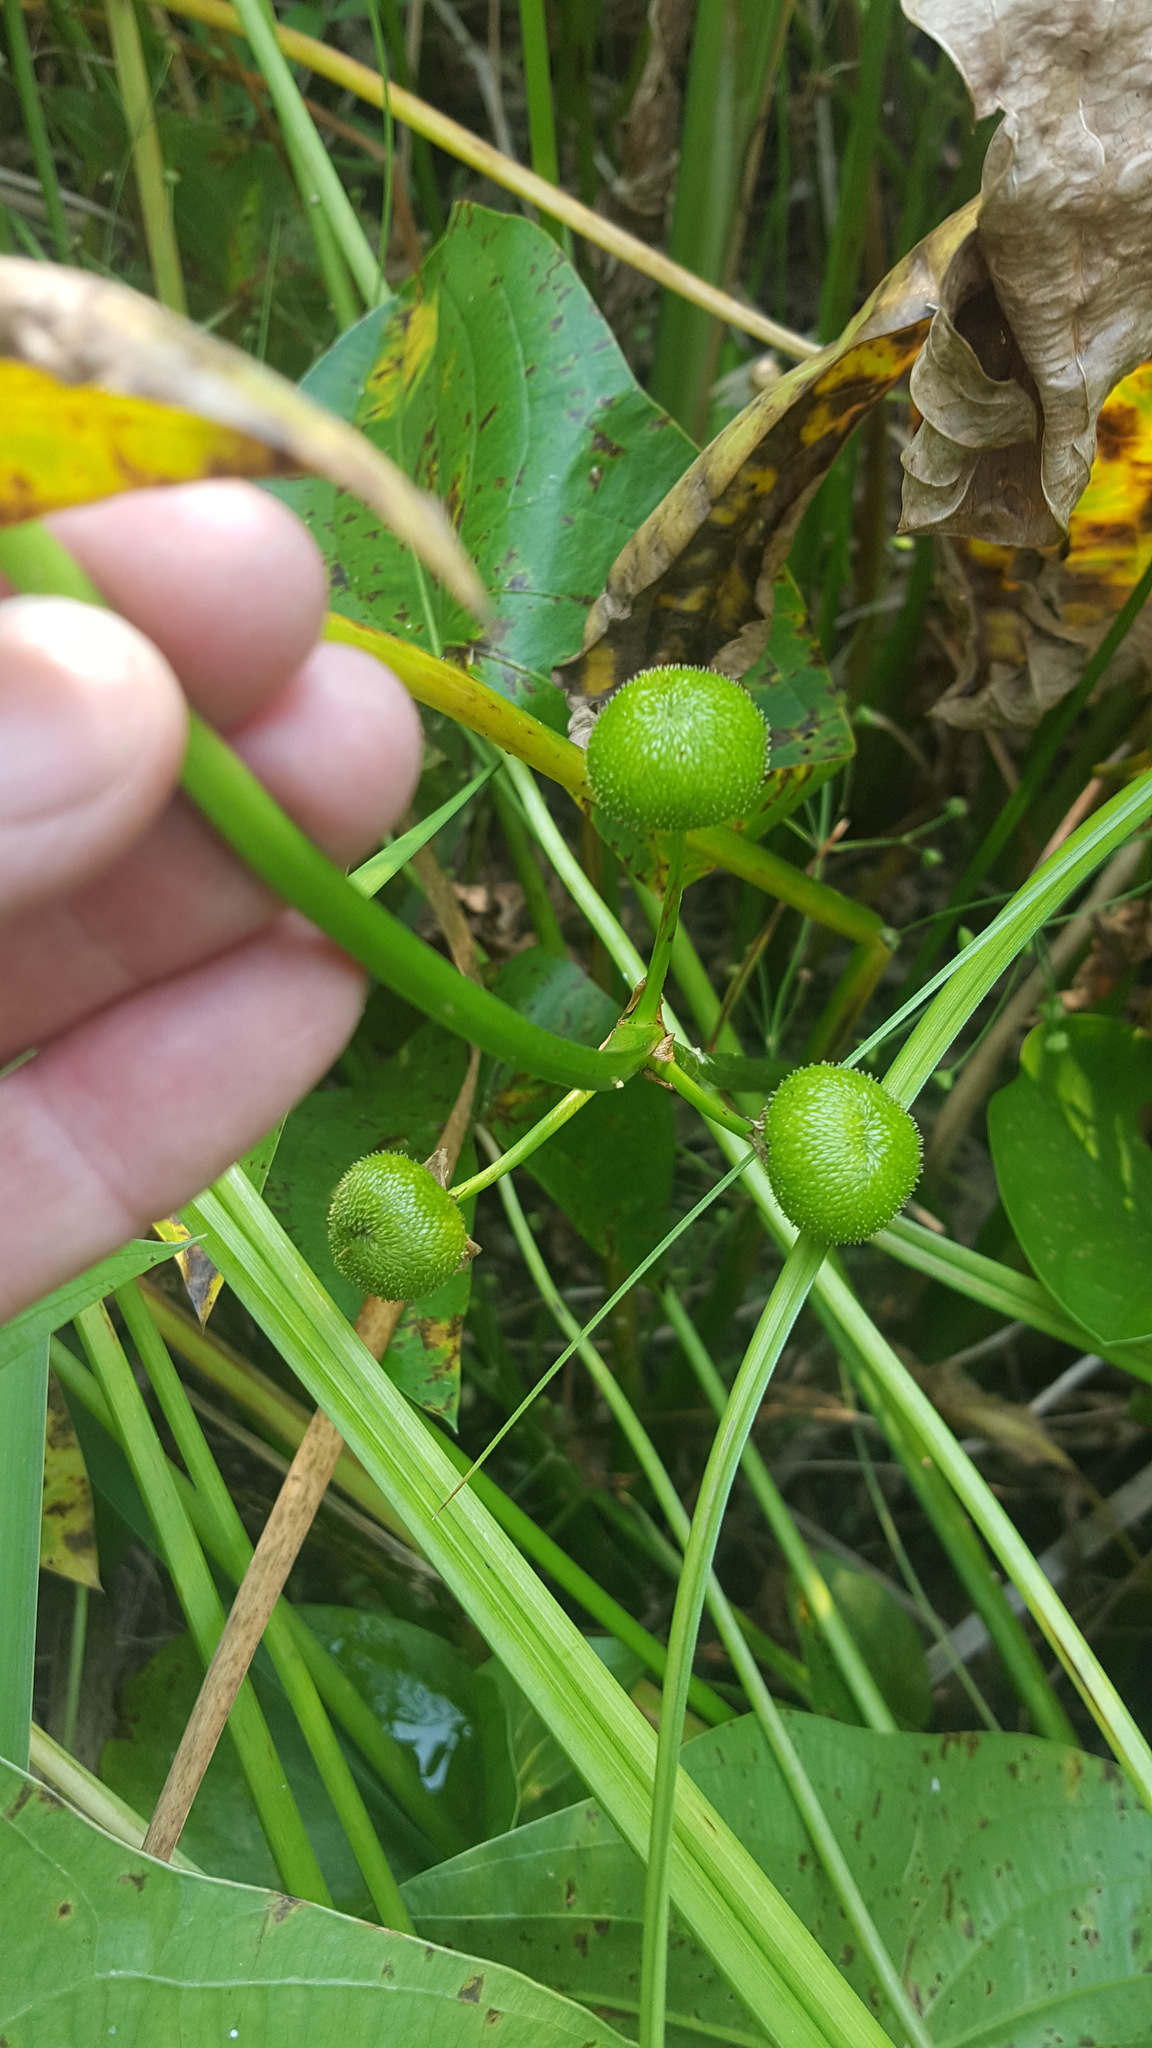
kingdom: Plantae
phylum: Tracheophyta
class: Liliopsida
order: Alismatales
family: Alismataceae
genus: Sagittaria
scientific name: Sagittaria latifolia
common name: Duck-potato
